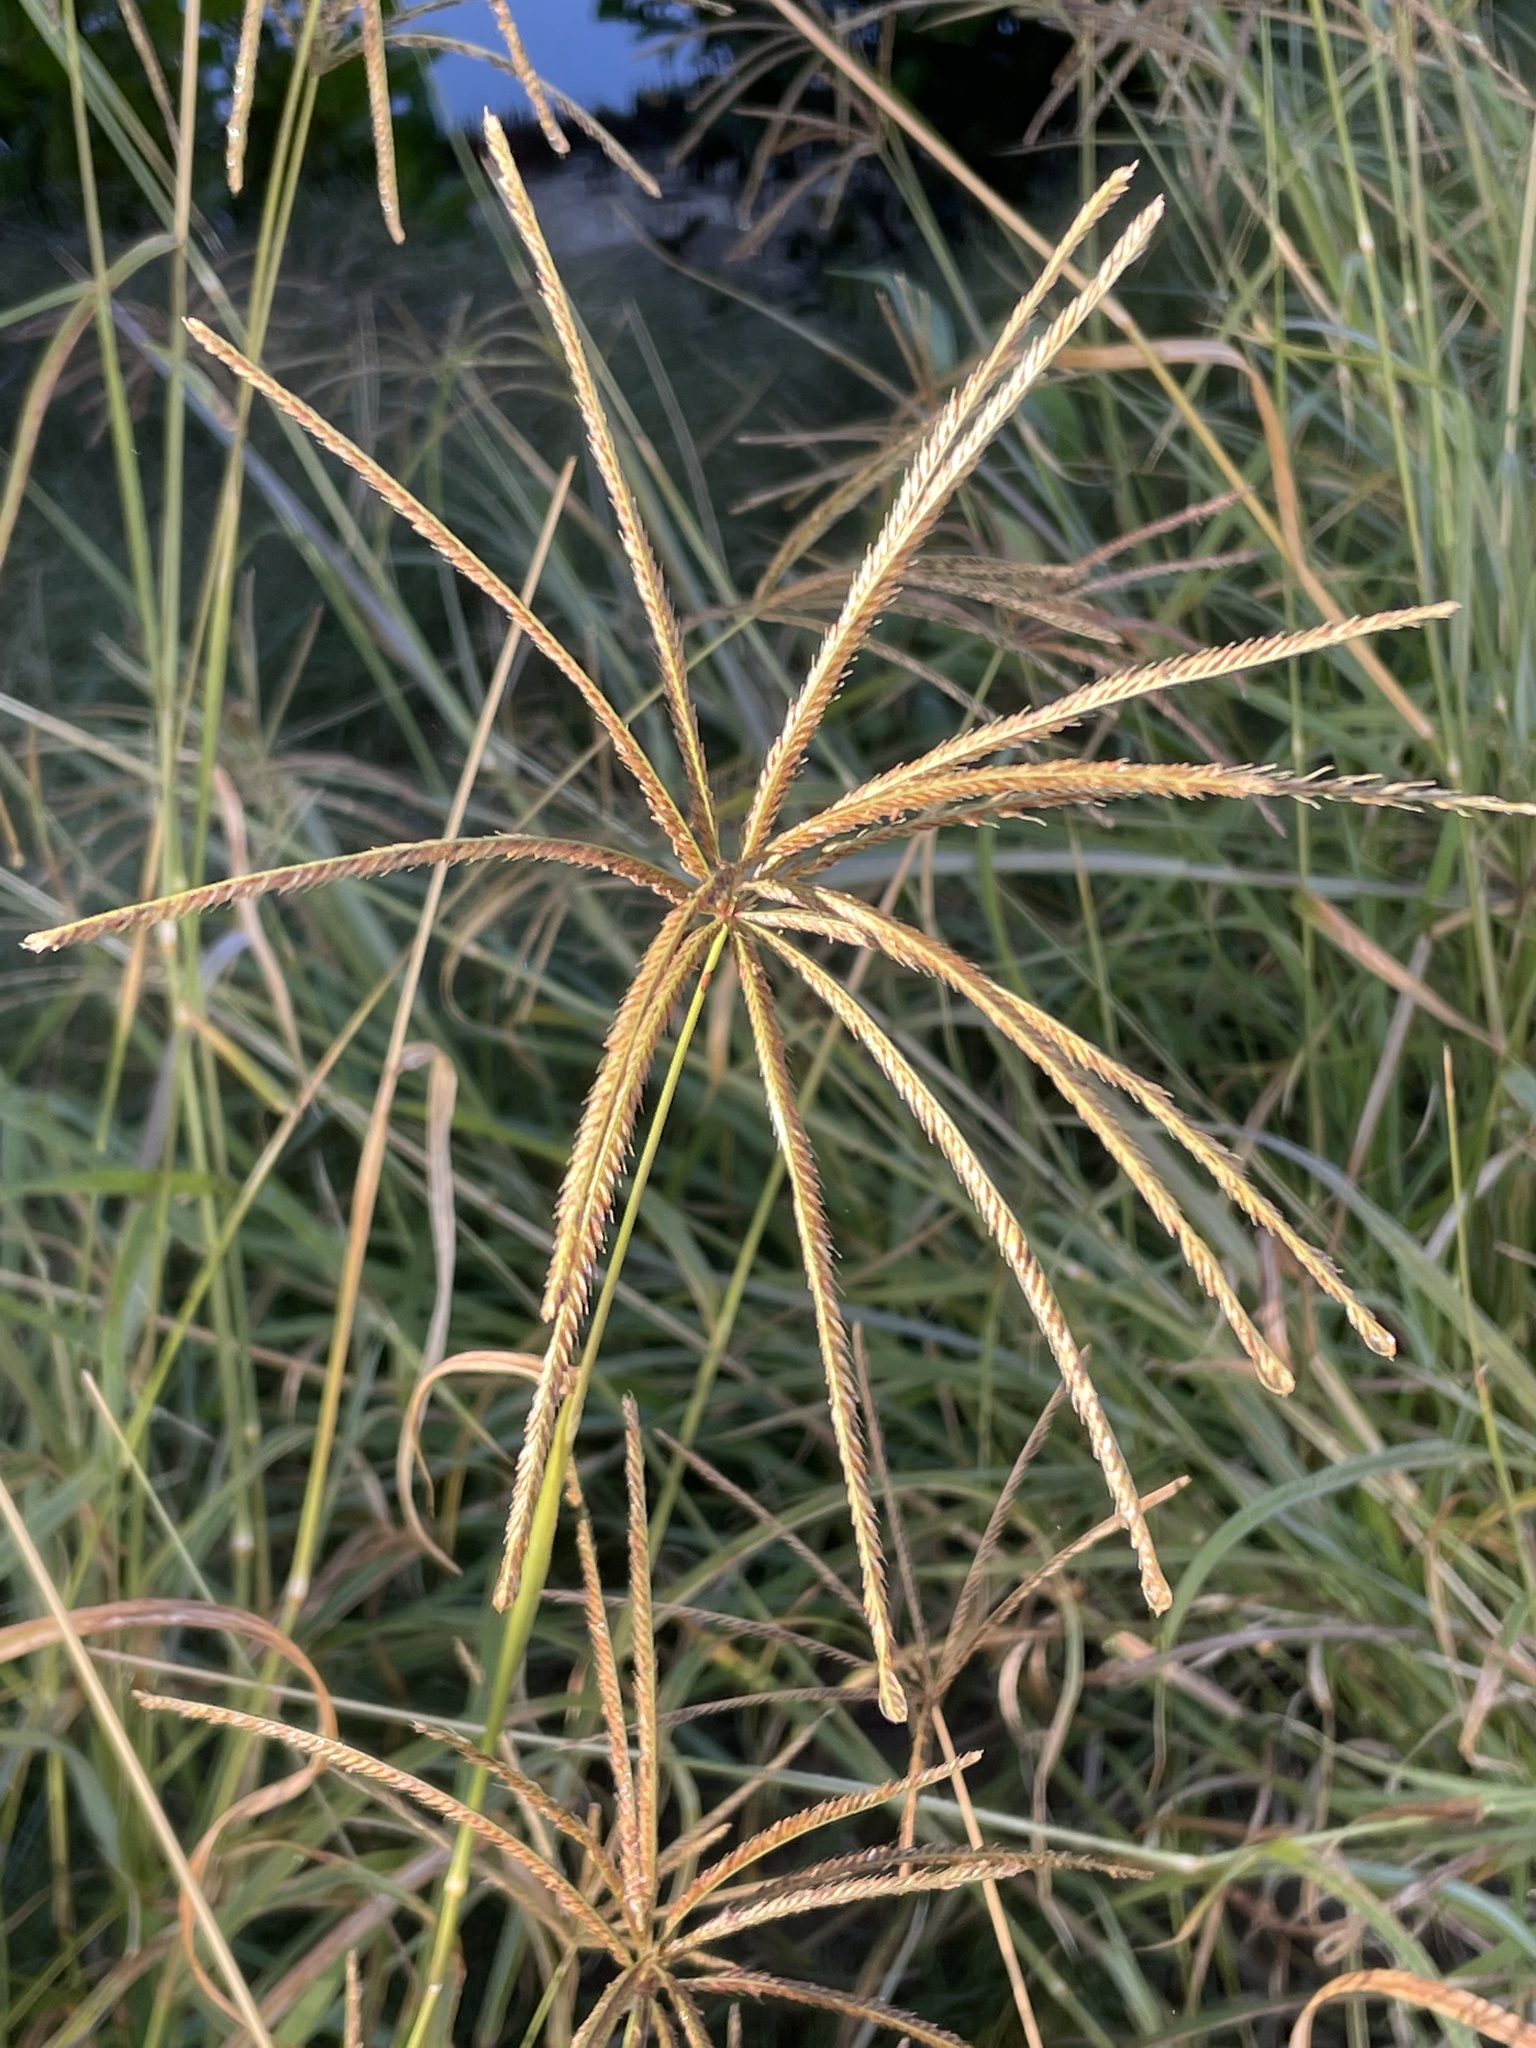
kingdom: Plantae
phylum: Tracheophyta
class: Liliopsida
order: Poales
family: Poaceae
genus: Chloris
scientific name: Chloris gayana
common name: Rhodes grass
